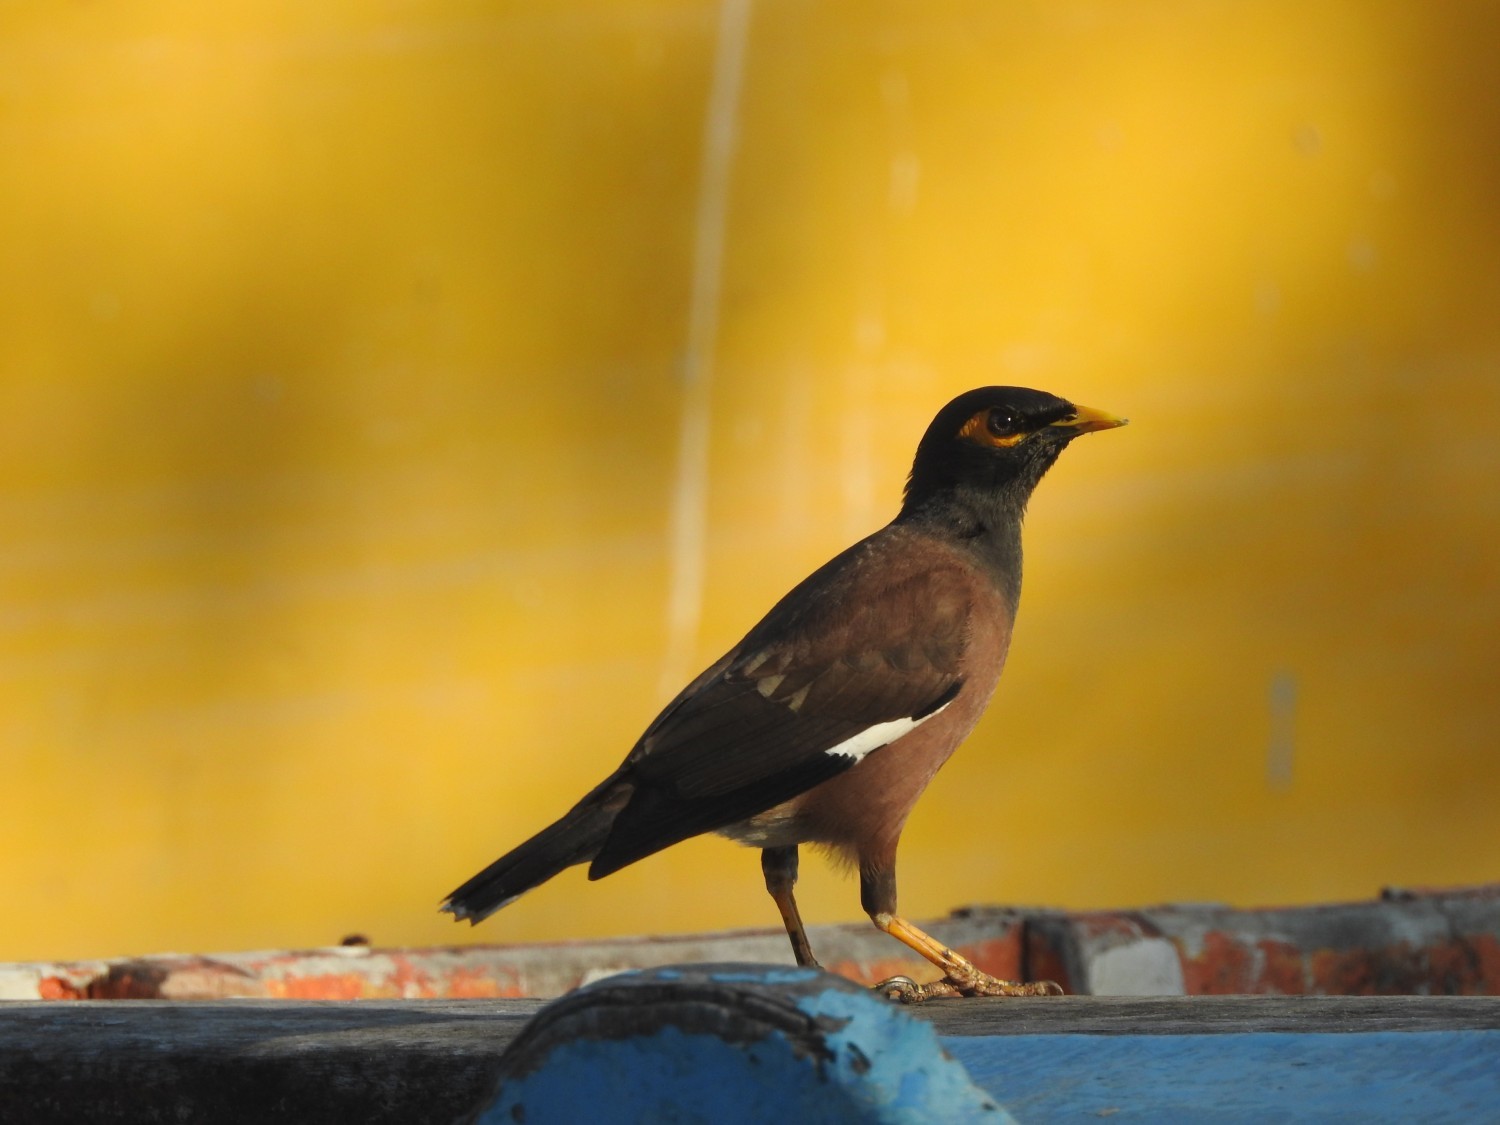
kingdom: Animalia
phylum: Chordata
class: Aves
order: Passeriformes
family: Sturnidae
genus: Acridotheres
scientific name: Acridotheres tristis
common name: Common myna
